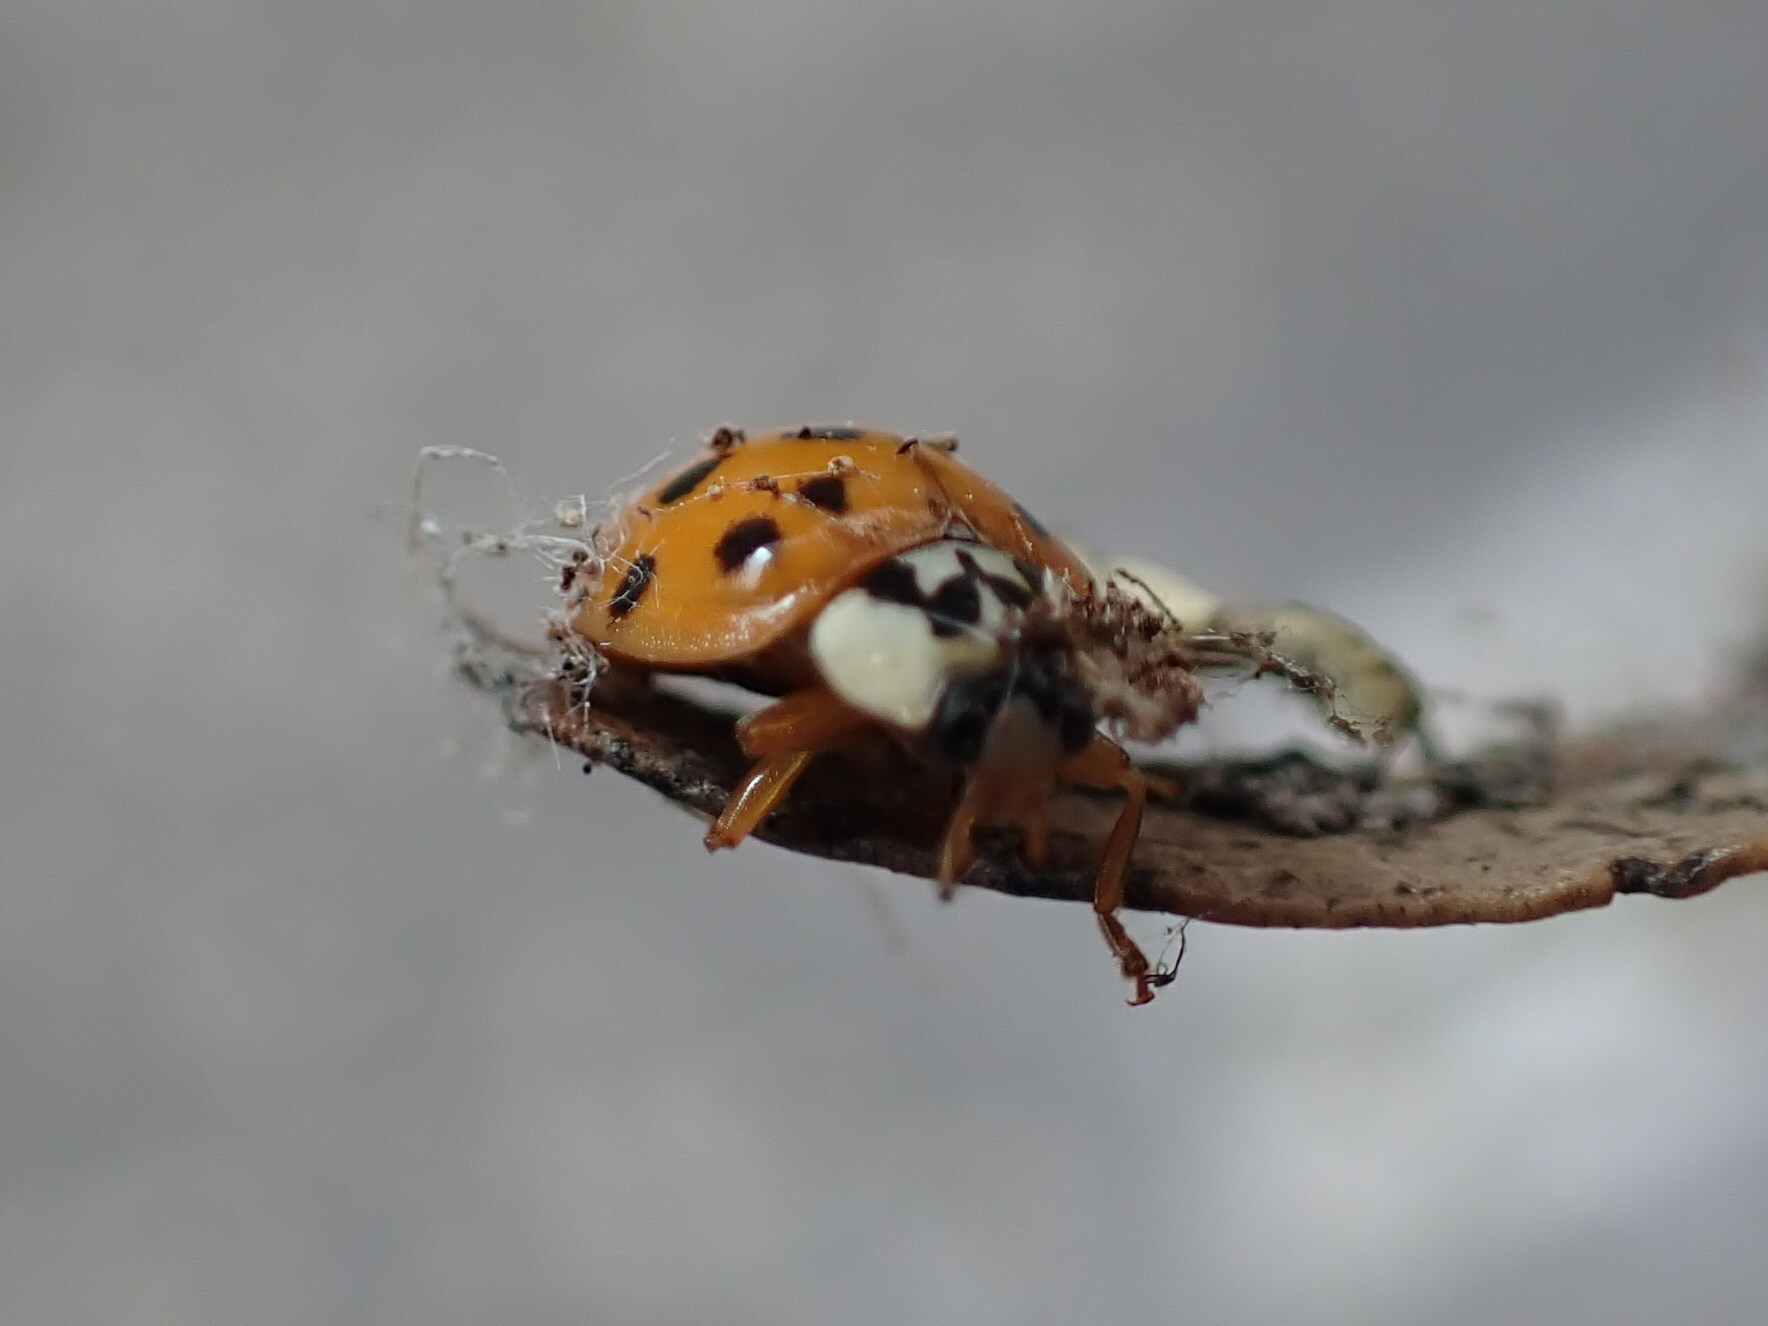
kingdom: Animalia
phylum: Arthropoda
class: Insecta
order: Coleoptera
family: Coccinellidae
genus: Harmonia
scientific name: Harmonia axyridis
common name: Harlequin ladybird
